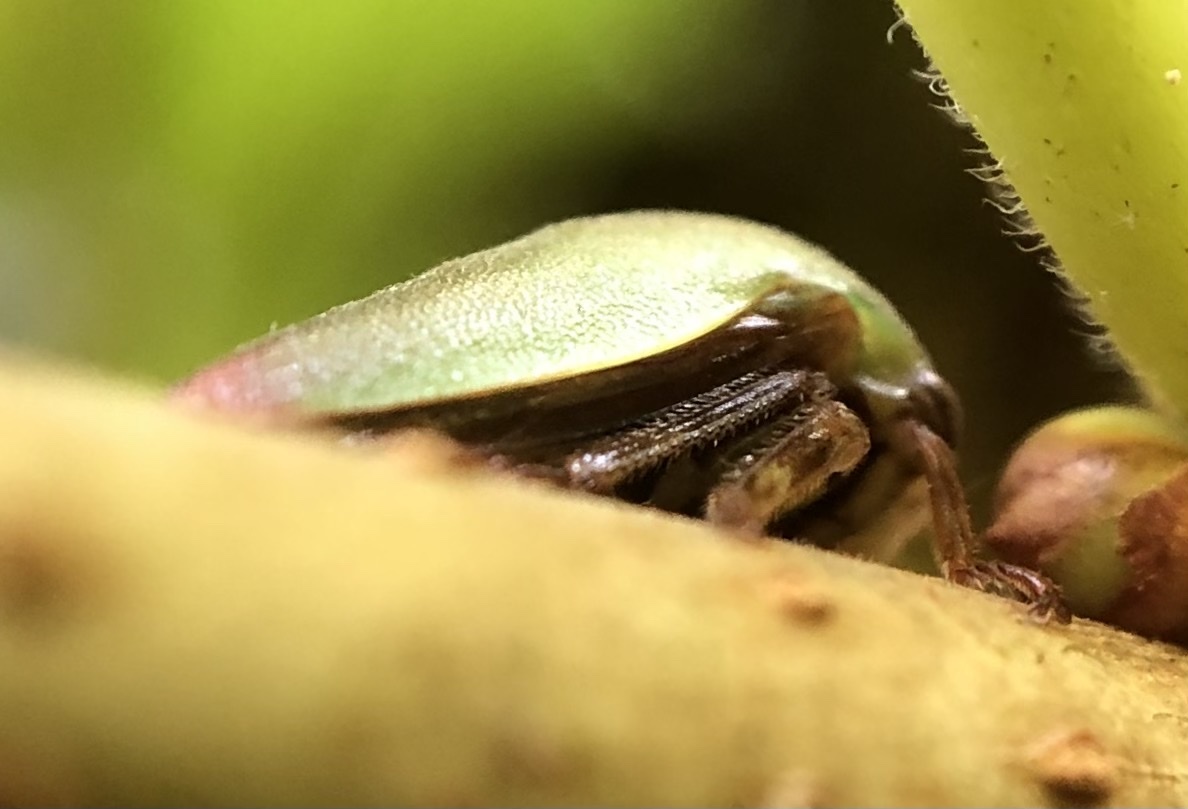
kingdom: Animalia
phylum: Arthropoda
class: Insecta
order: Hemiptera
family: Membracidae
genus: Hebetica
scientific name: Hebetica
